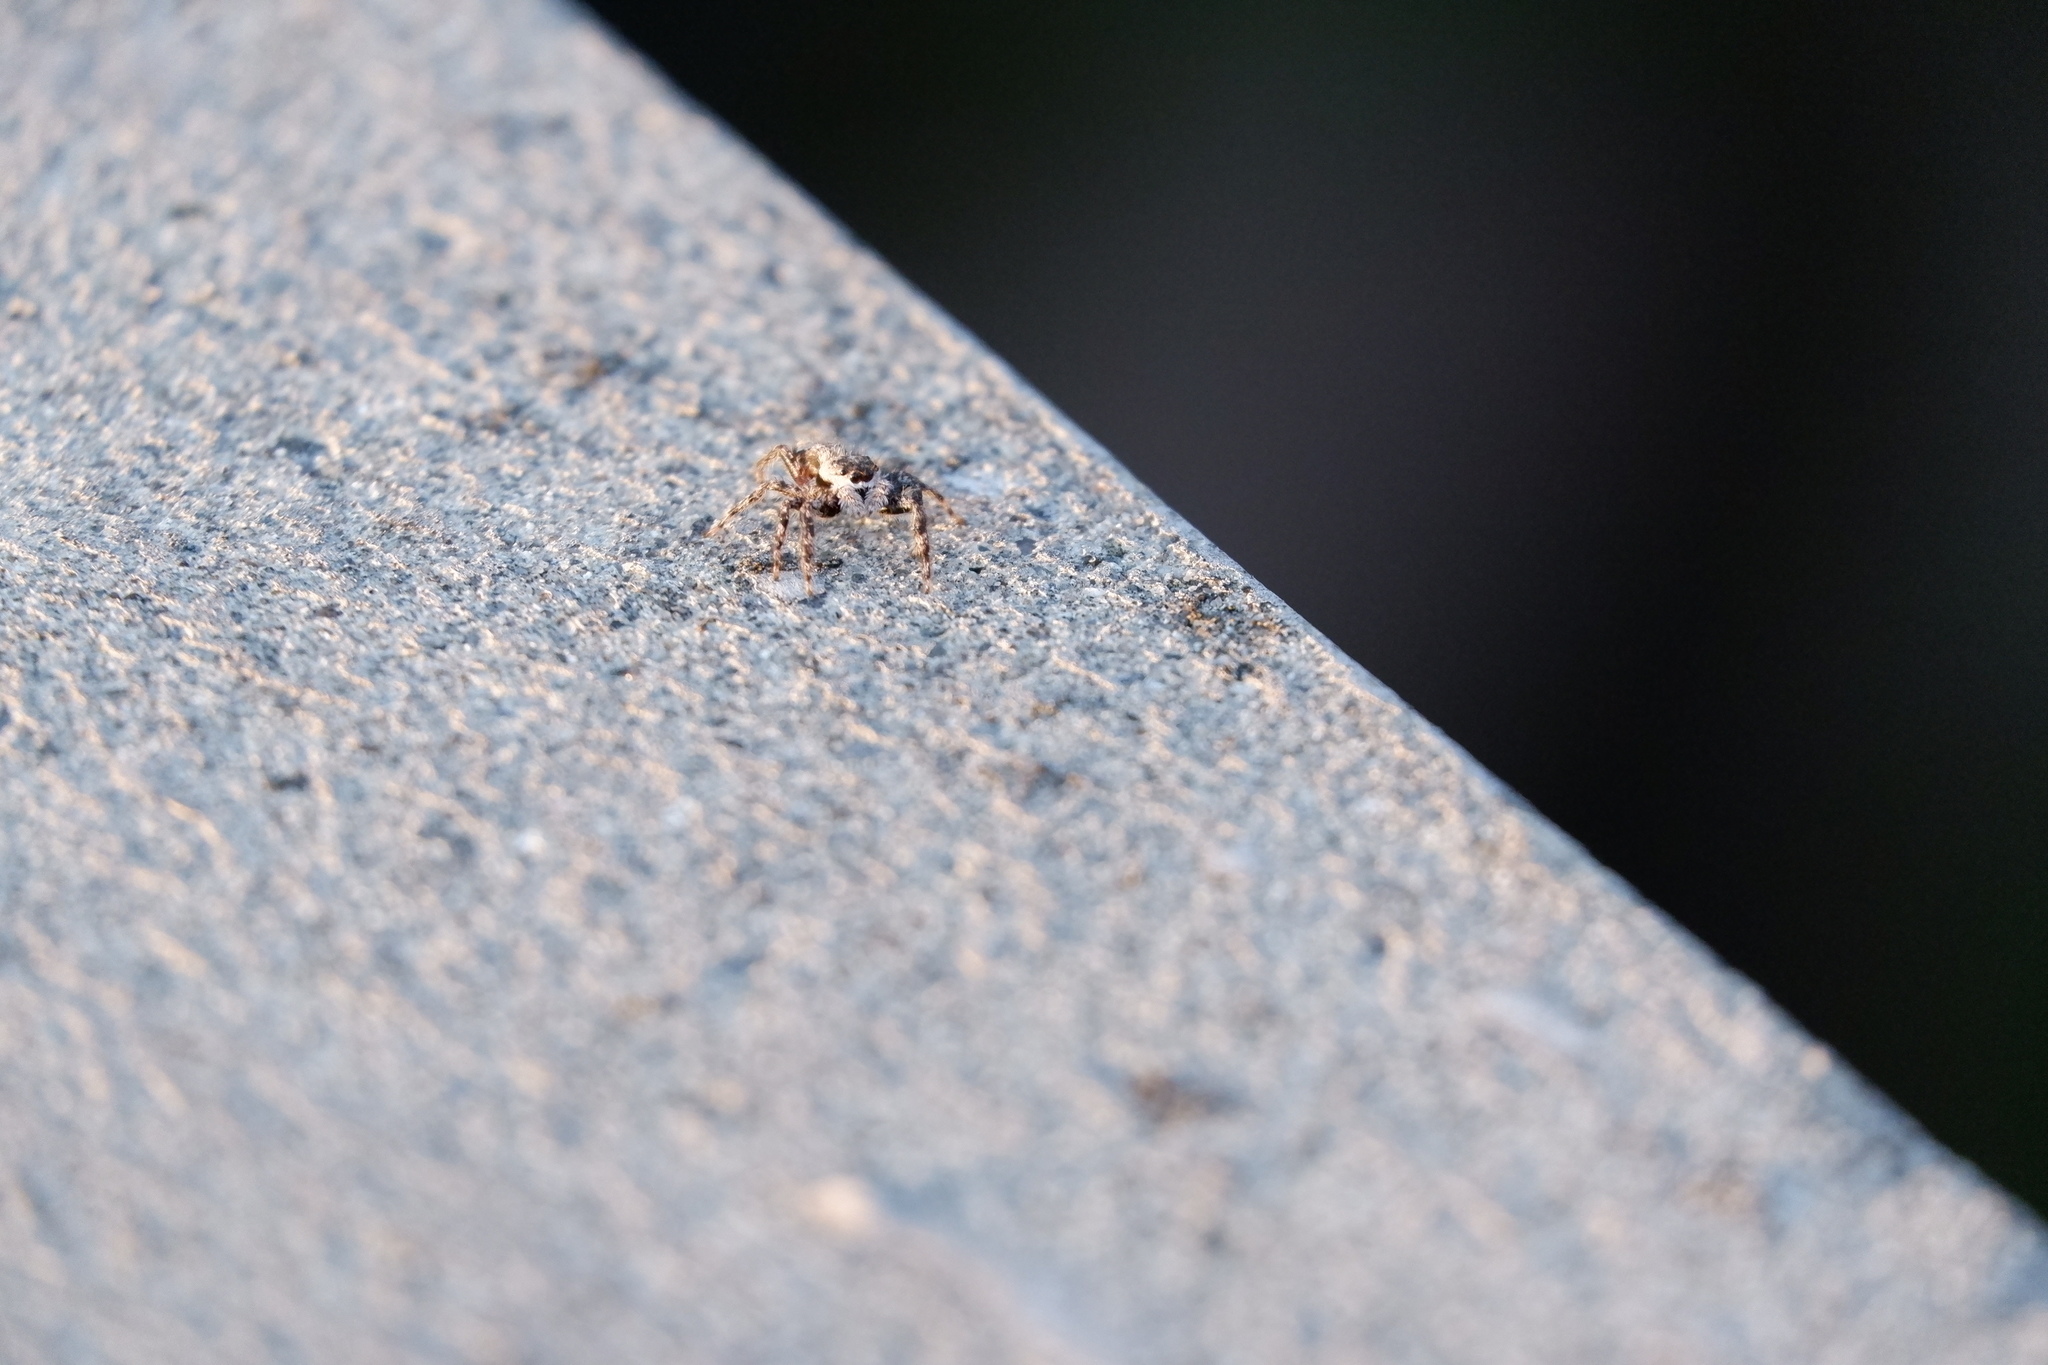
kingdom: Animalia
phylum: Arthropoda
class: Arachnida
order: Araneae
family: Salticidae
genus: Platycryptus
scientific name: Platycryptus undatus
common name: Tan jumping spider
